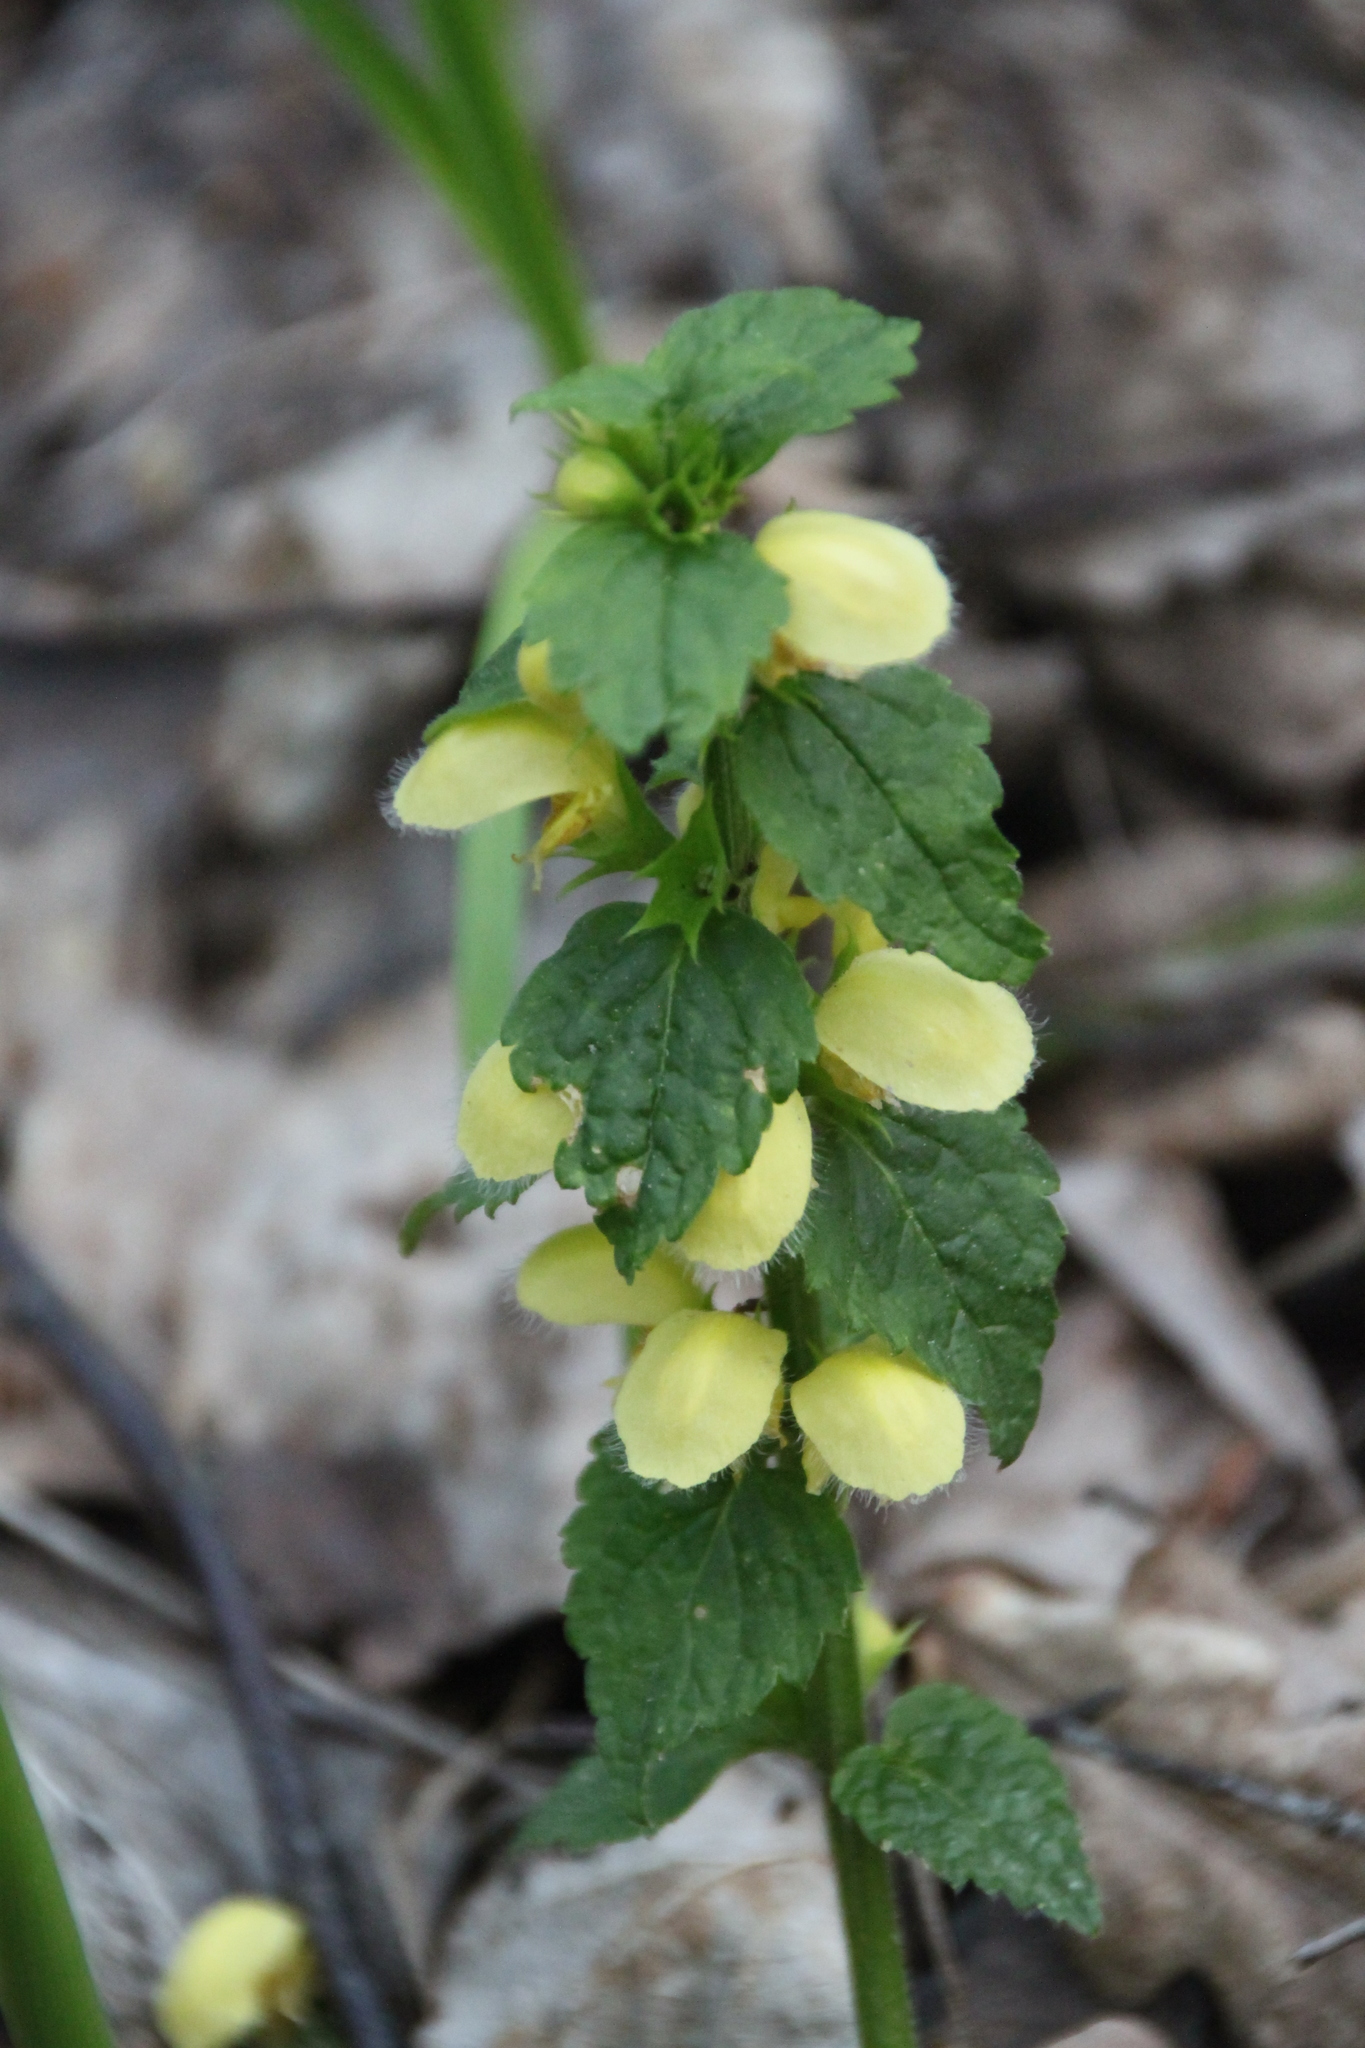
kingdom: Plantae
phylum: Tracheophyta
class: Magnoliopsida
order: Lamiales
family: Lamiaceae
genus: Lamium
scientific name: Lamium galeobdolon
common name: Yellow archangel
